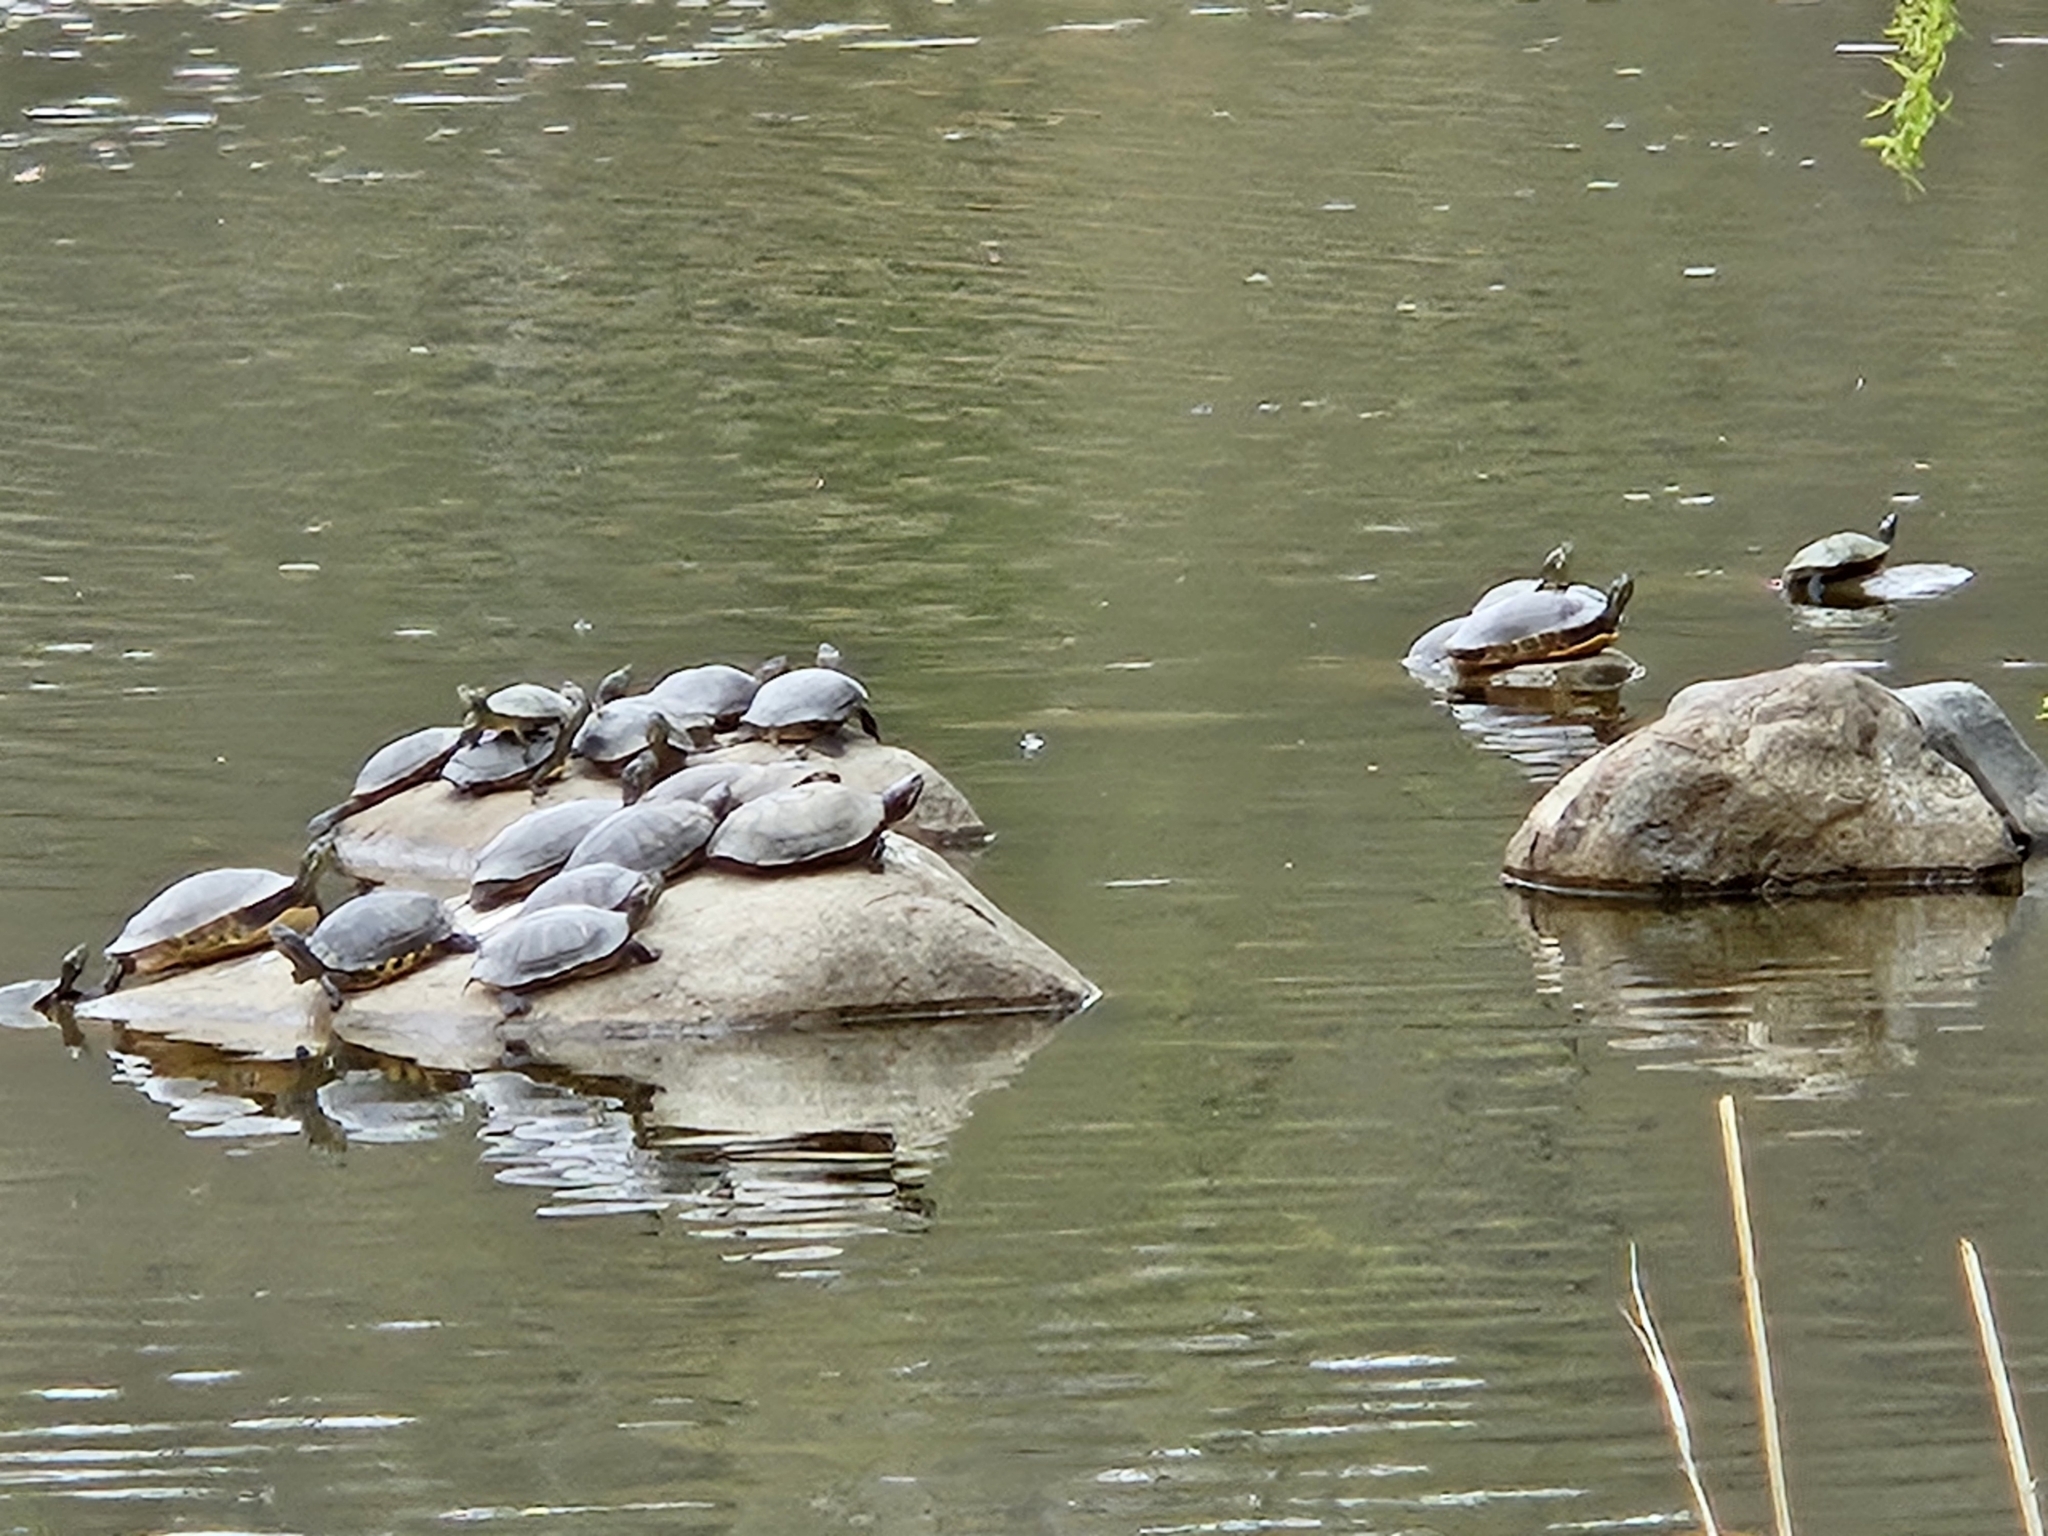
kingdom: Animalia
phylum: Chordata
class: Testudines
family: Emydidae
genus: Trachemys
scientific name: Trachemys scripta
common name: Slider
